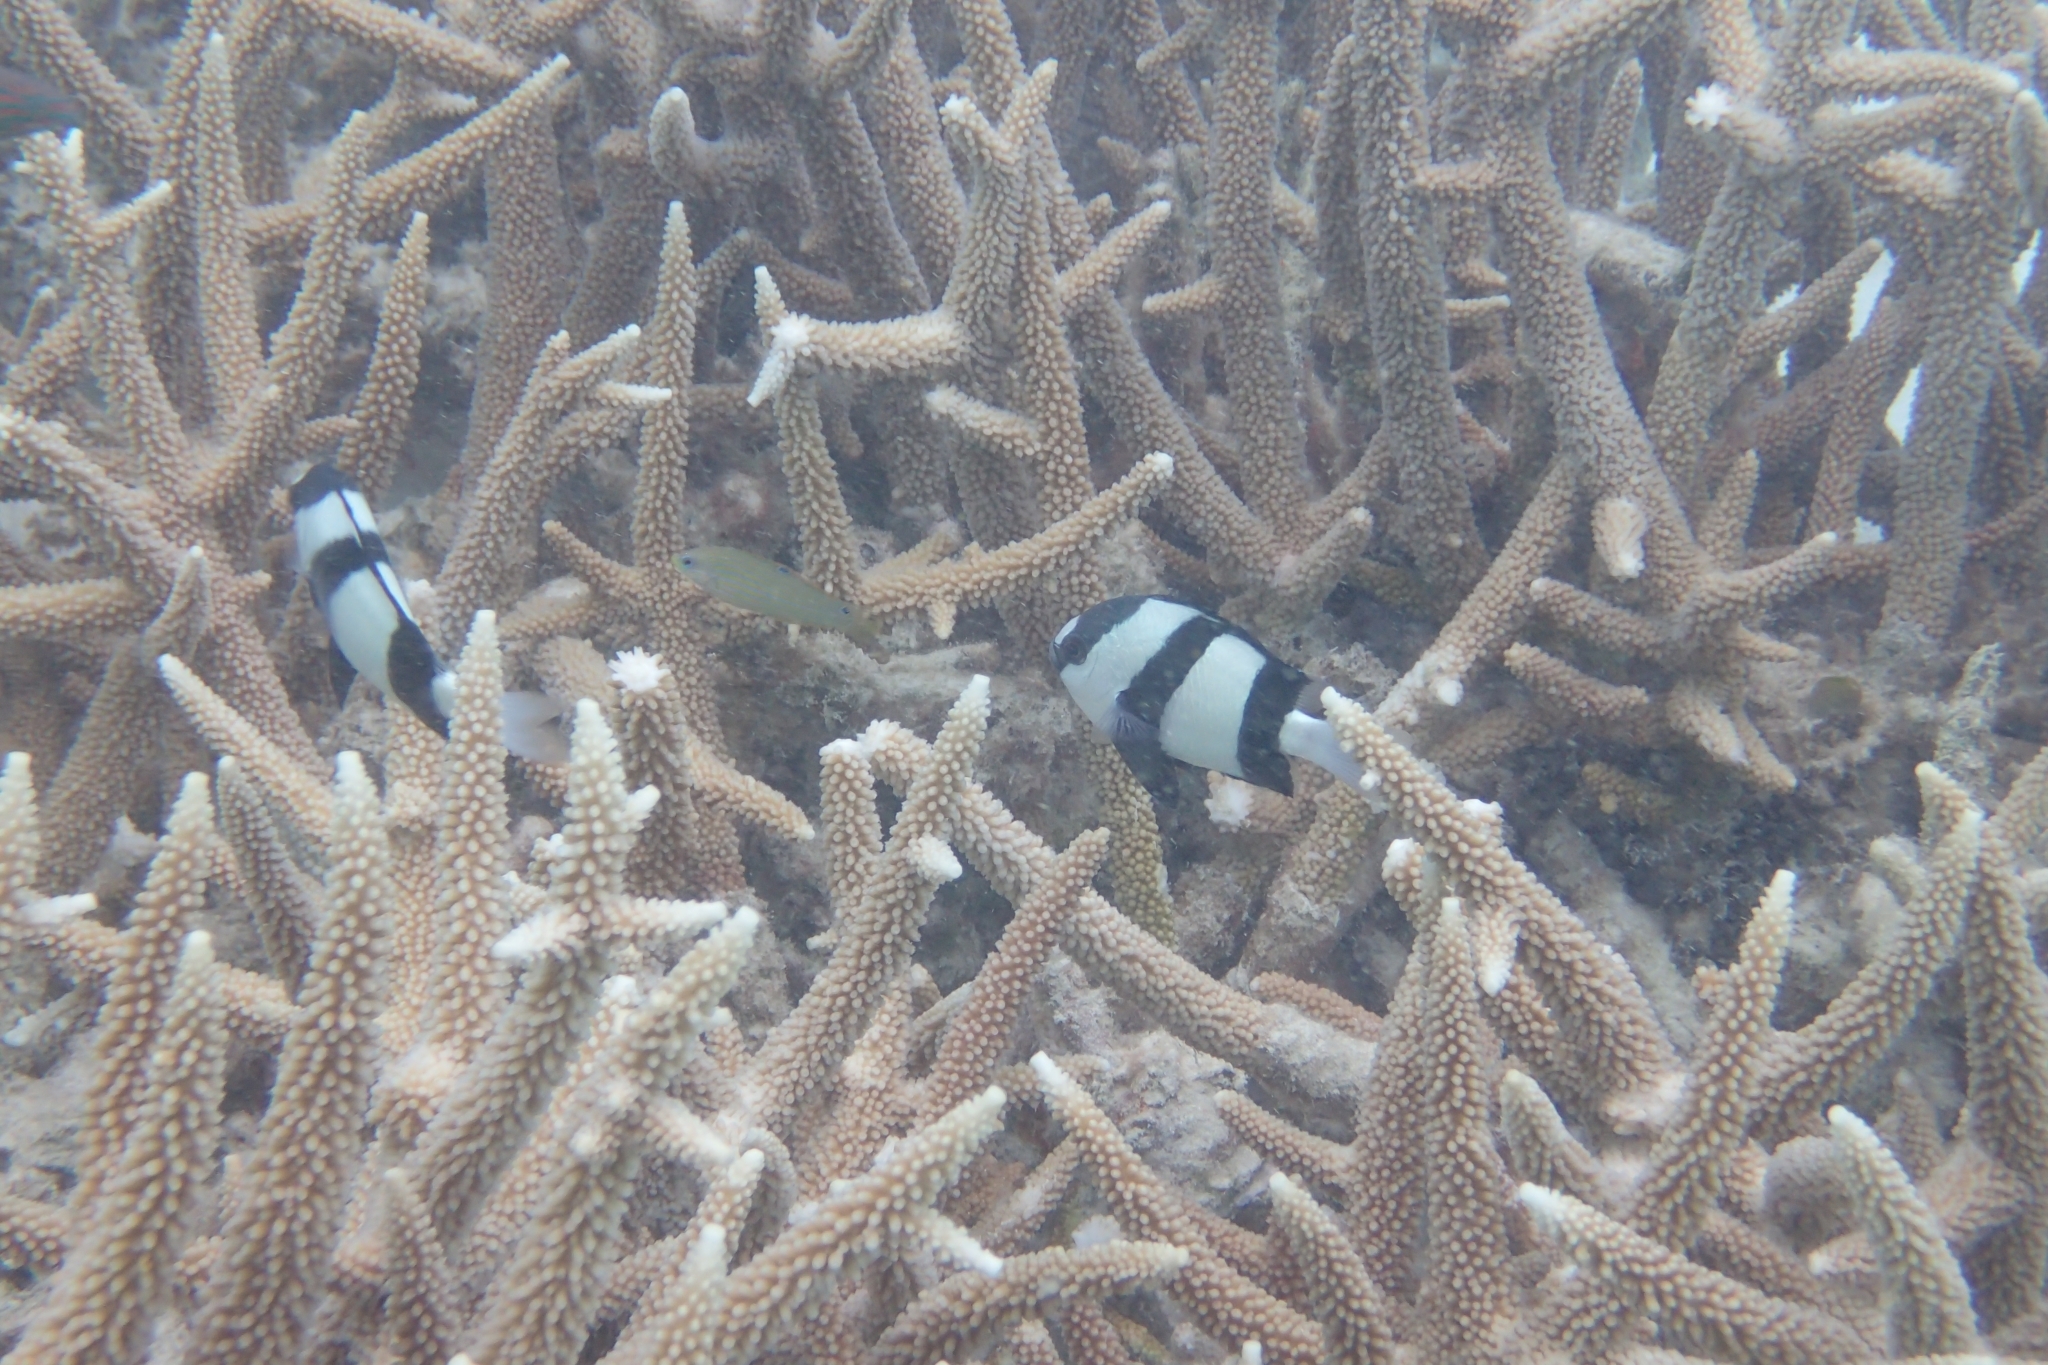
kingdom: Animalia
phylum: Chordata
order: Perciformes
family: Pomacentridae
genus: Dascyllus
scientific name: Dascyllus aruanus
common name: Humbug dascyllus
